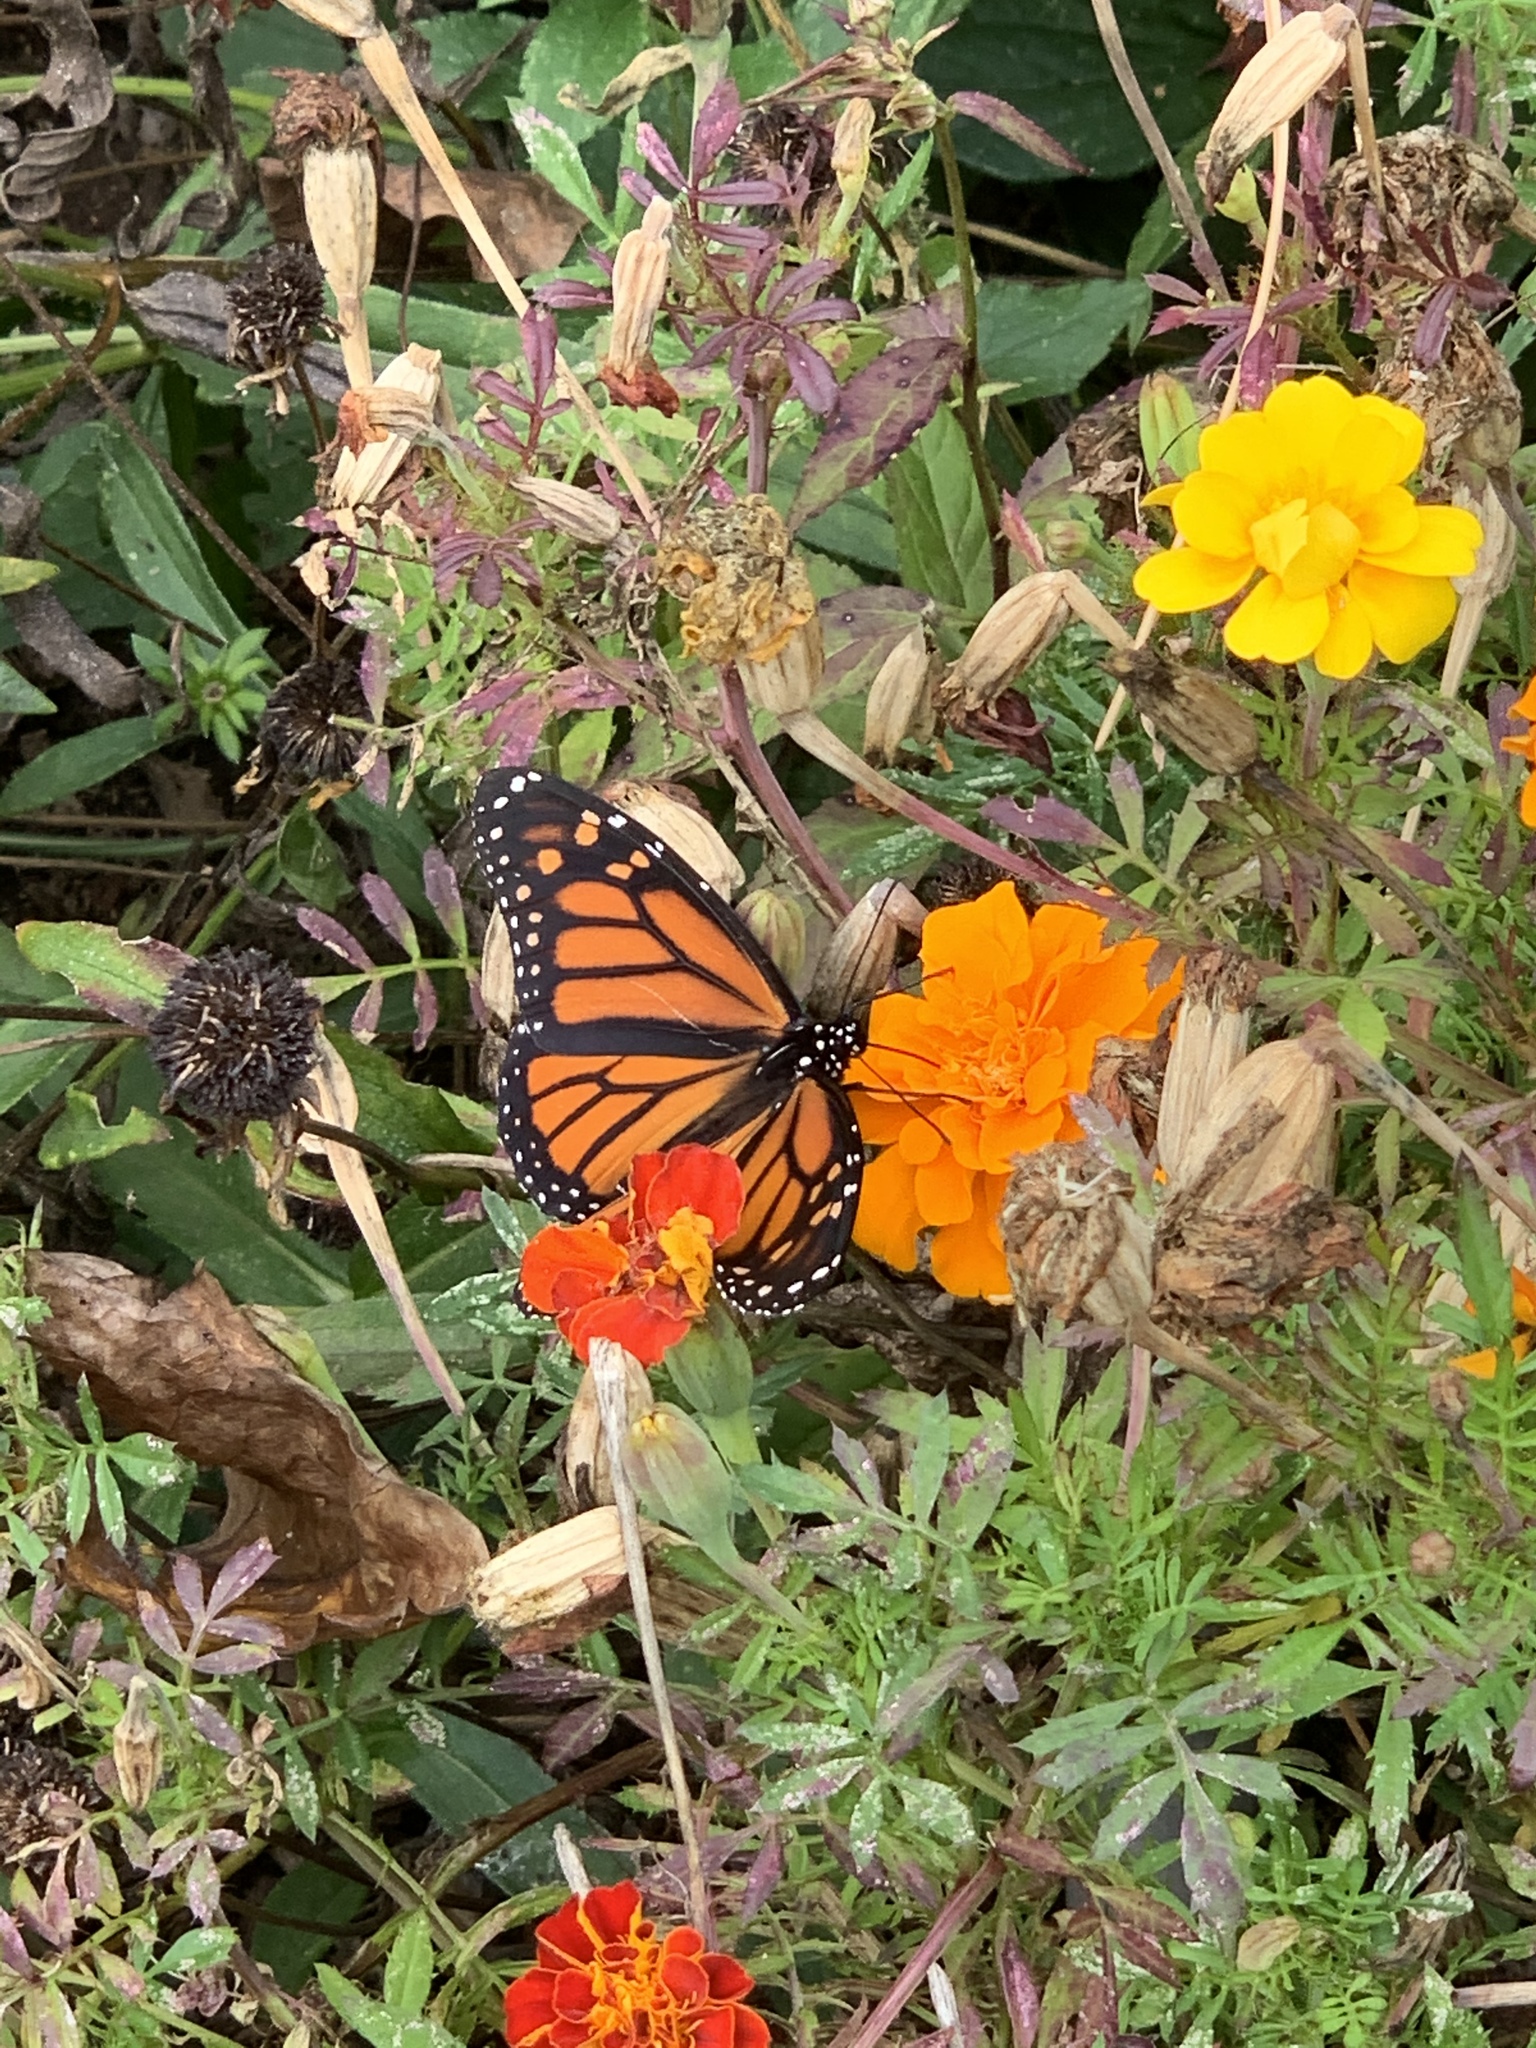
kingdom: Animalia
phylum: Arthropoda
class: Insecta
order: Lepidoptera
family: Nymphalidae
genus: Danaus
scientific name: Danaus plexippus
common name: Monarch
